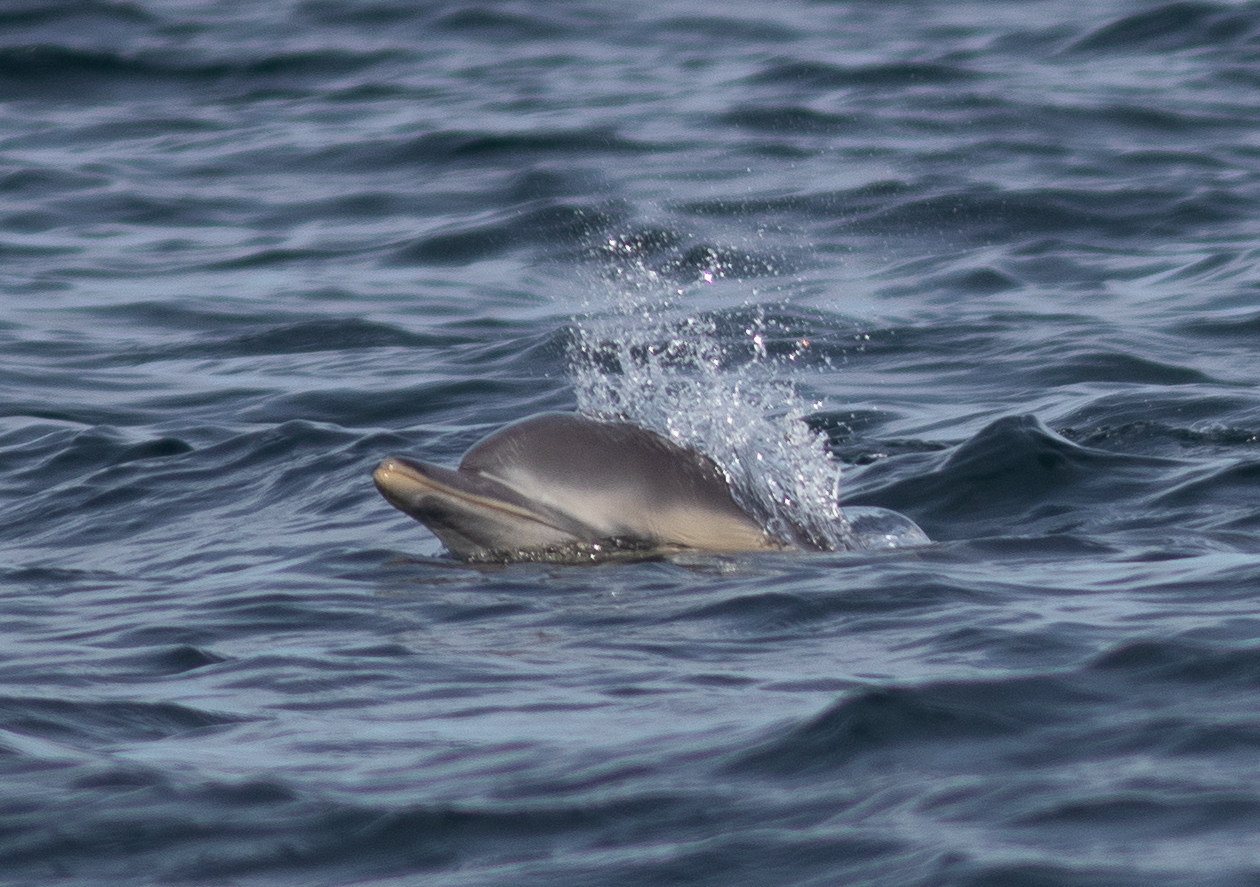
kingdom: Animalia
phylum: Chordata
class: Mammalia
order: Cetacea
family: Delphinidae
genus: Delphinus
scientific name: Delphinus delphis
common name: Common dolphin
